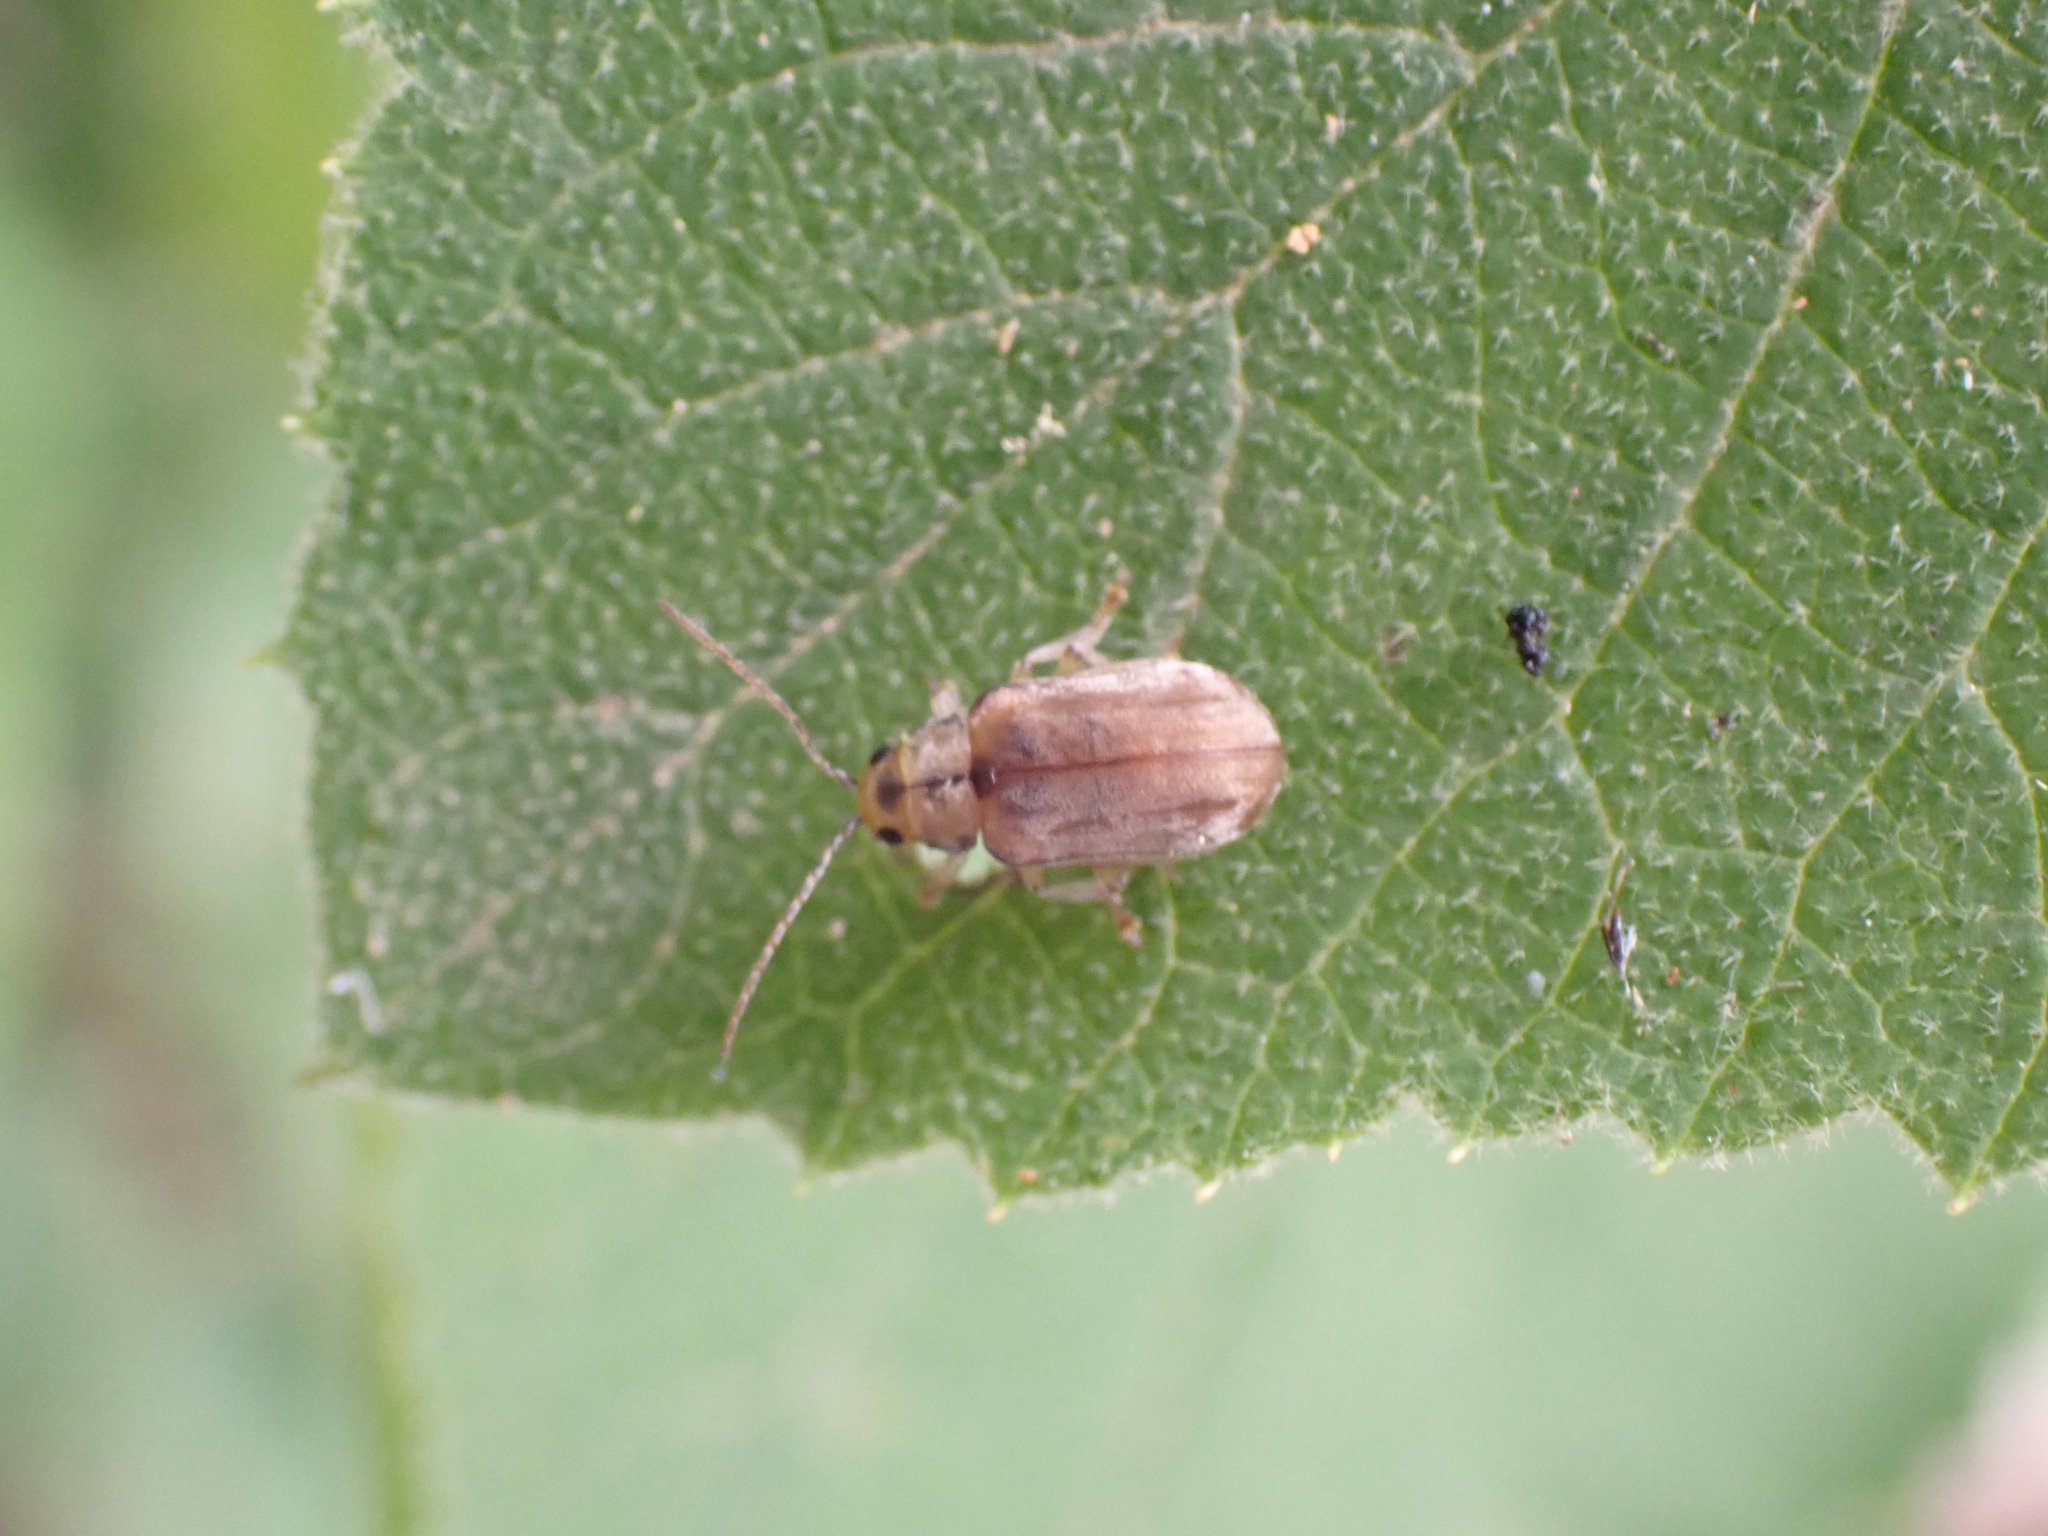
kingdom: Animalia
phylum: Arthropoda
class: Insecta
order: Coleoptera
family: Chrysomelidae
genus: Pyrrhalta
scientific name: Pyrrhalta viburni
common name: Guelder-rose leaf beetle
